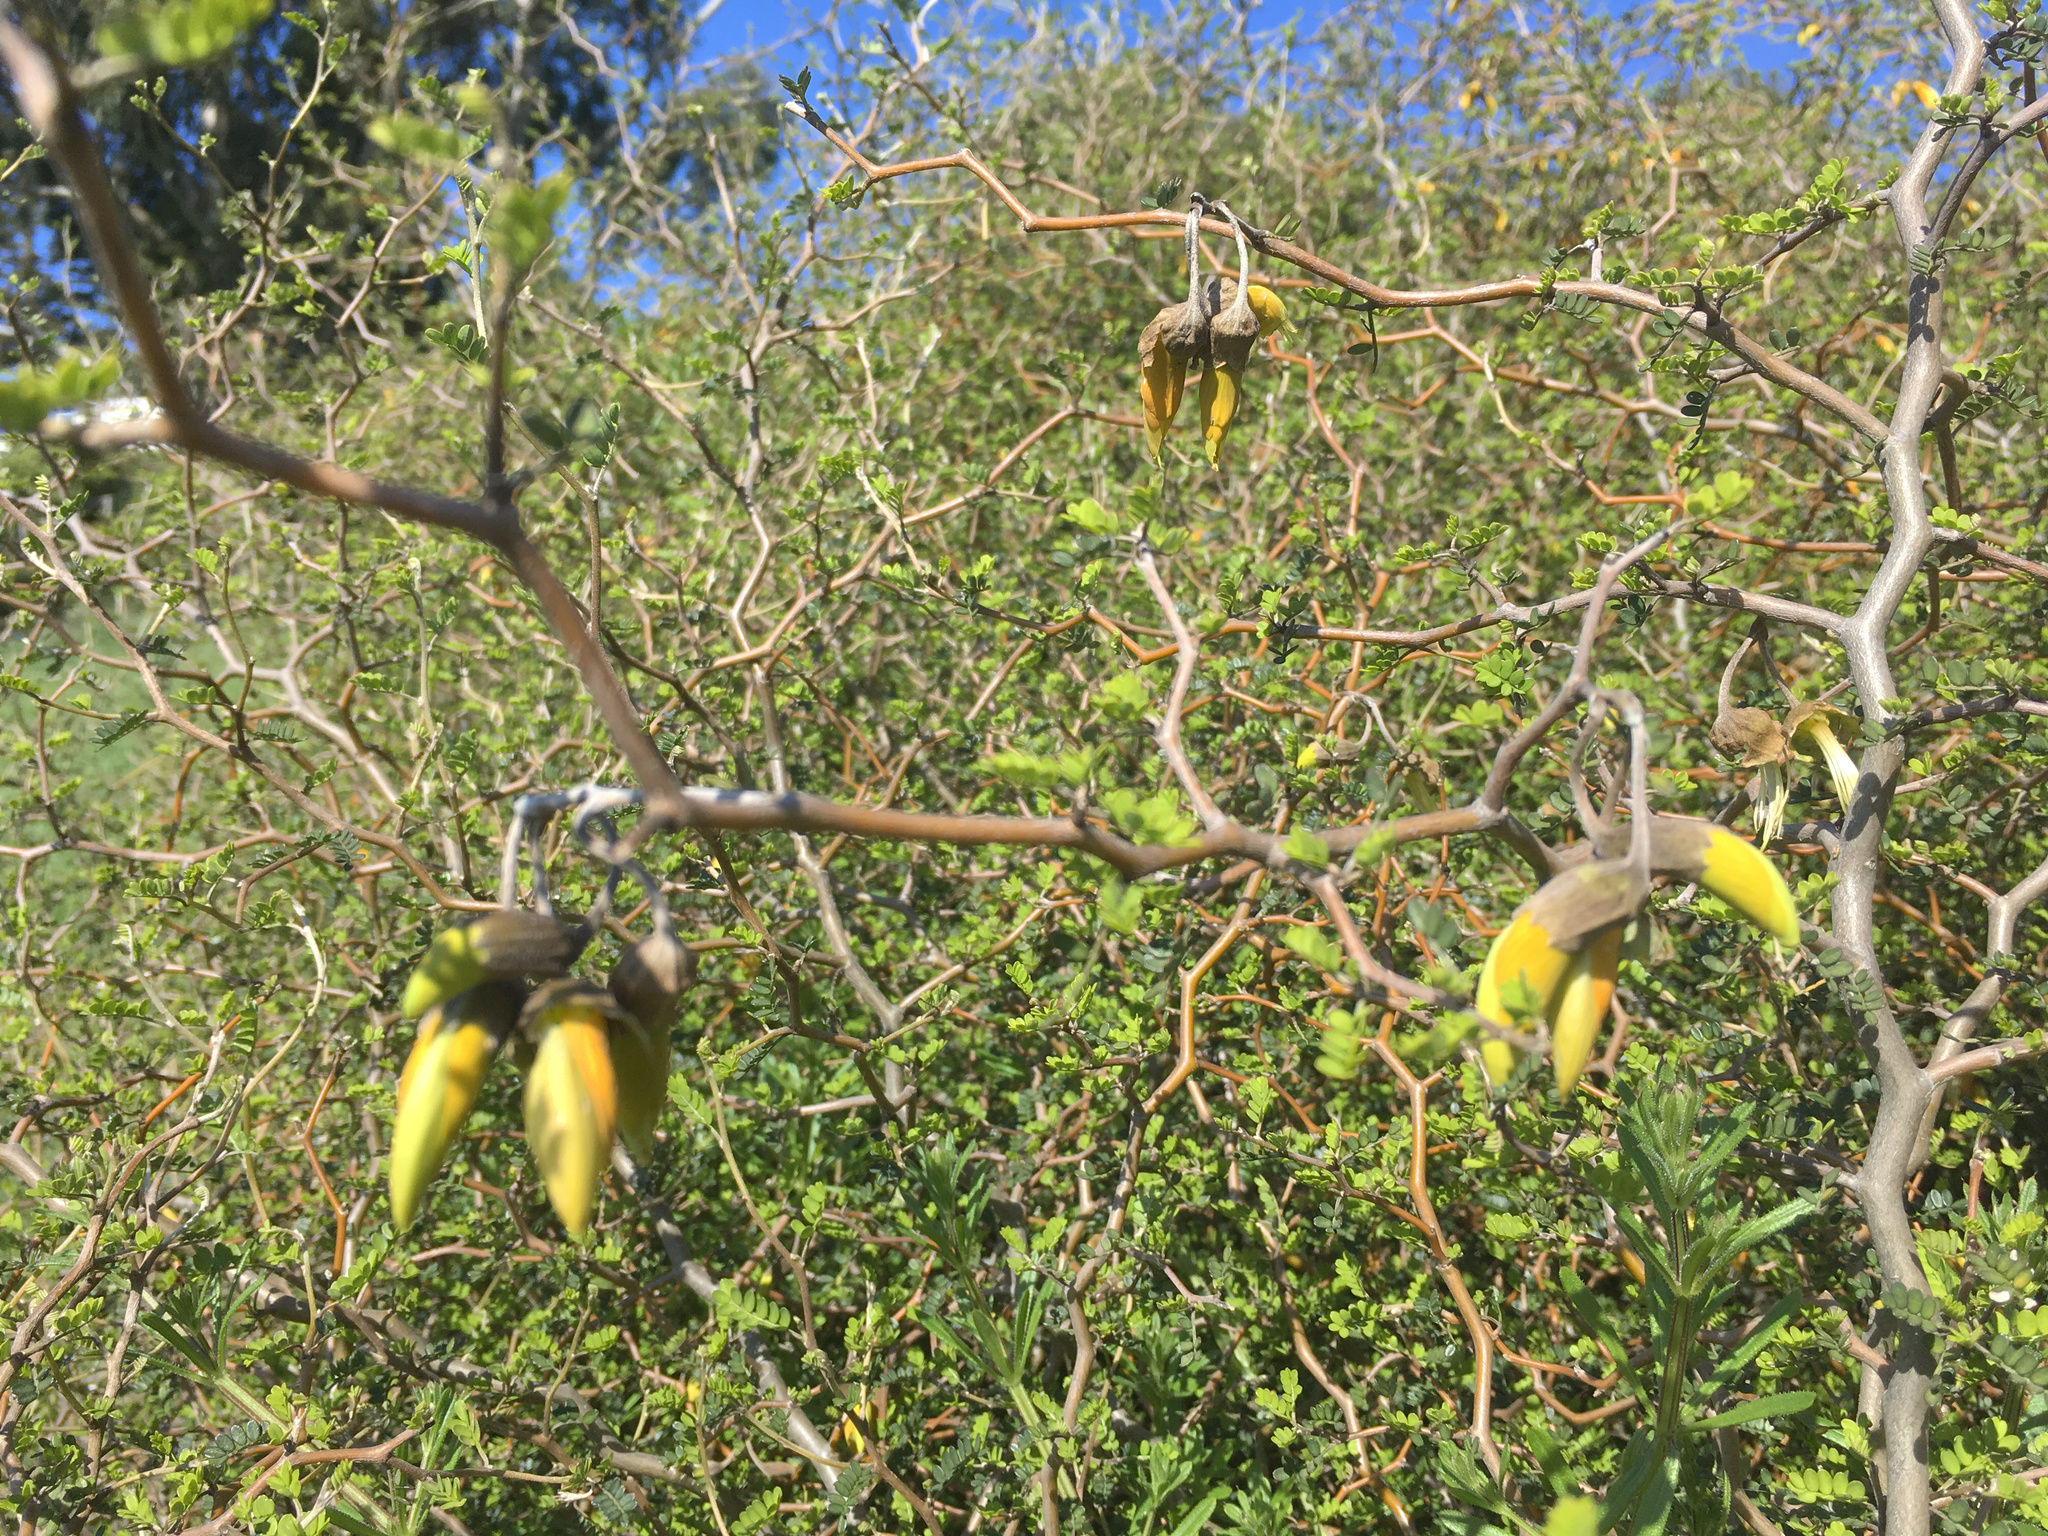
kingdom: Plantae
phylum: Tracheophyta
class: Magnoliopsida
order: Fabales
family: Fabaceae
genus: Sophora
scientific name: Sophora prostrata
